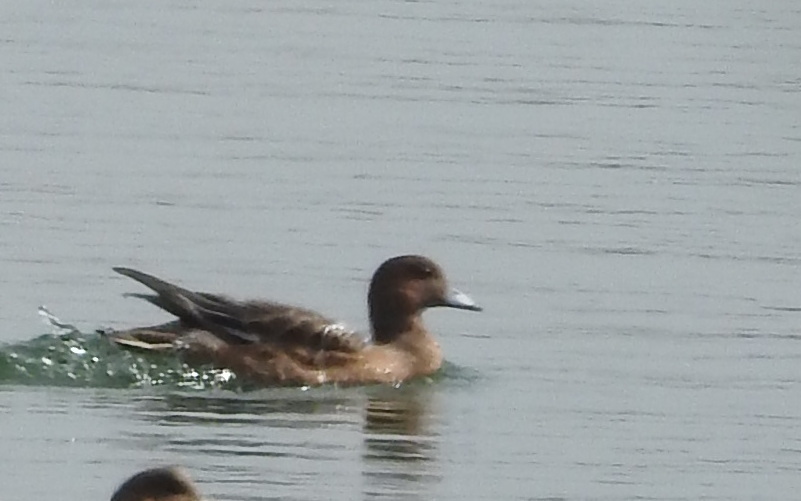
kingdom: Animalia
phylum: Chordata
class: Aves
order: Anseriformes
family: Anatidae
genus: Mareca
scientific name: Mareca penelope
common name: Eurasian wigeon
